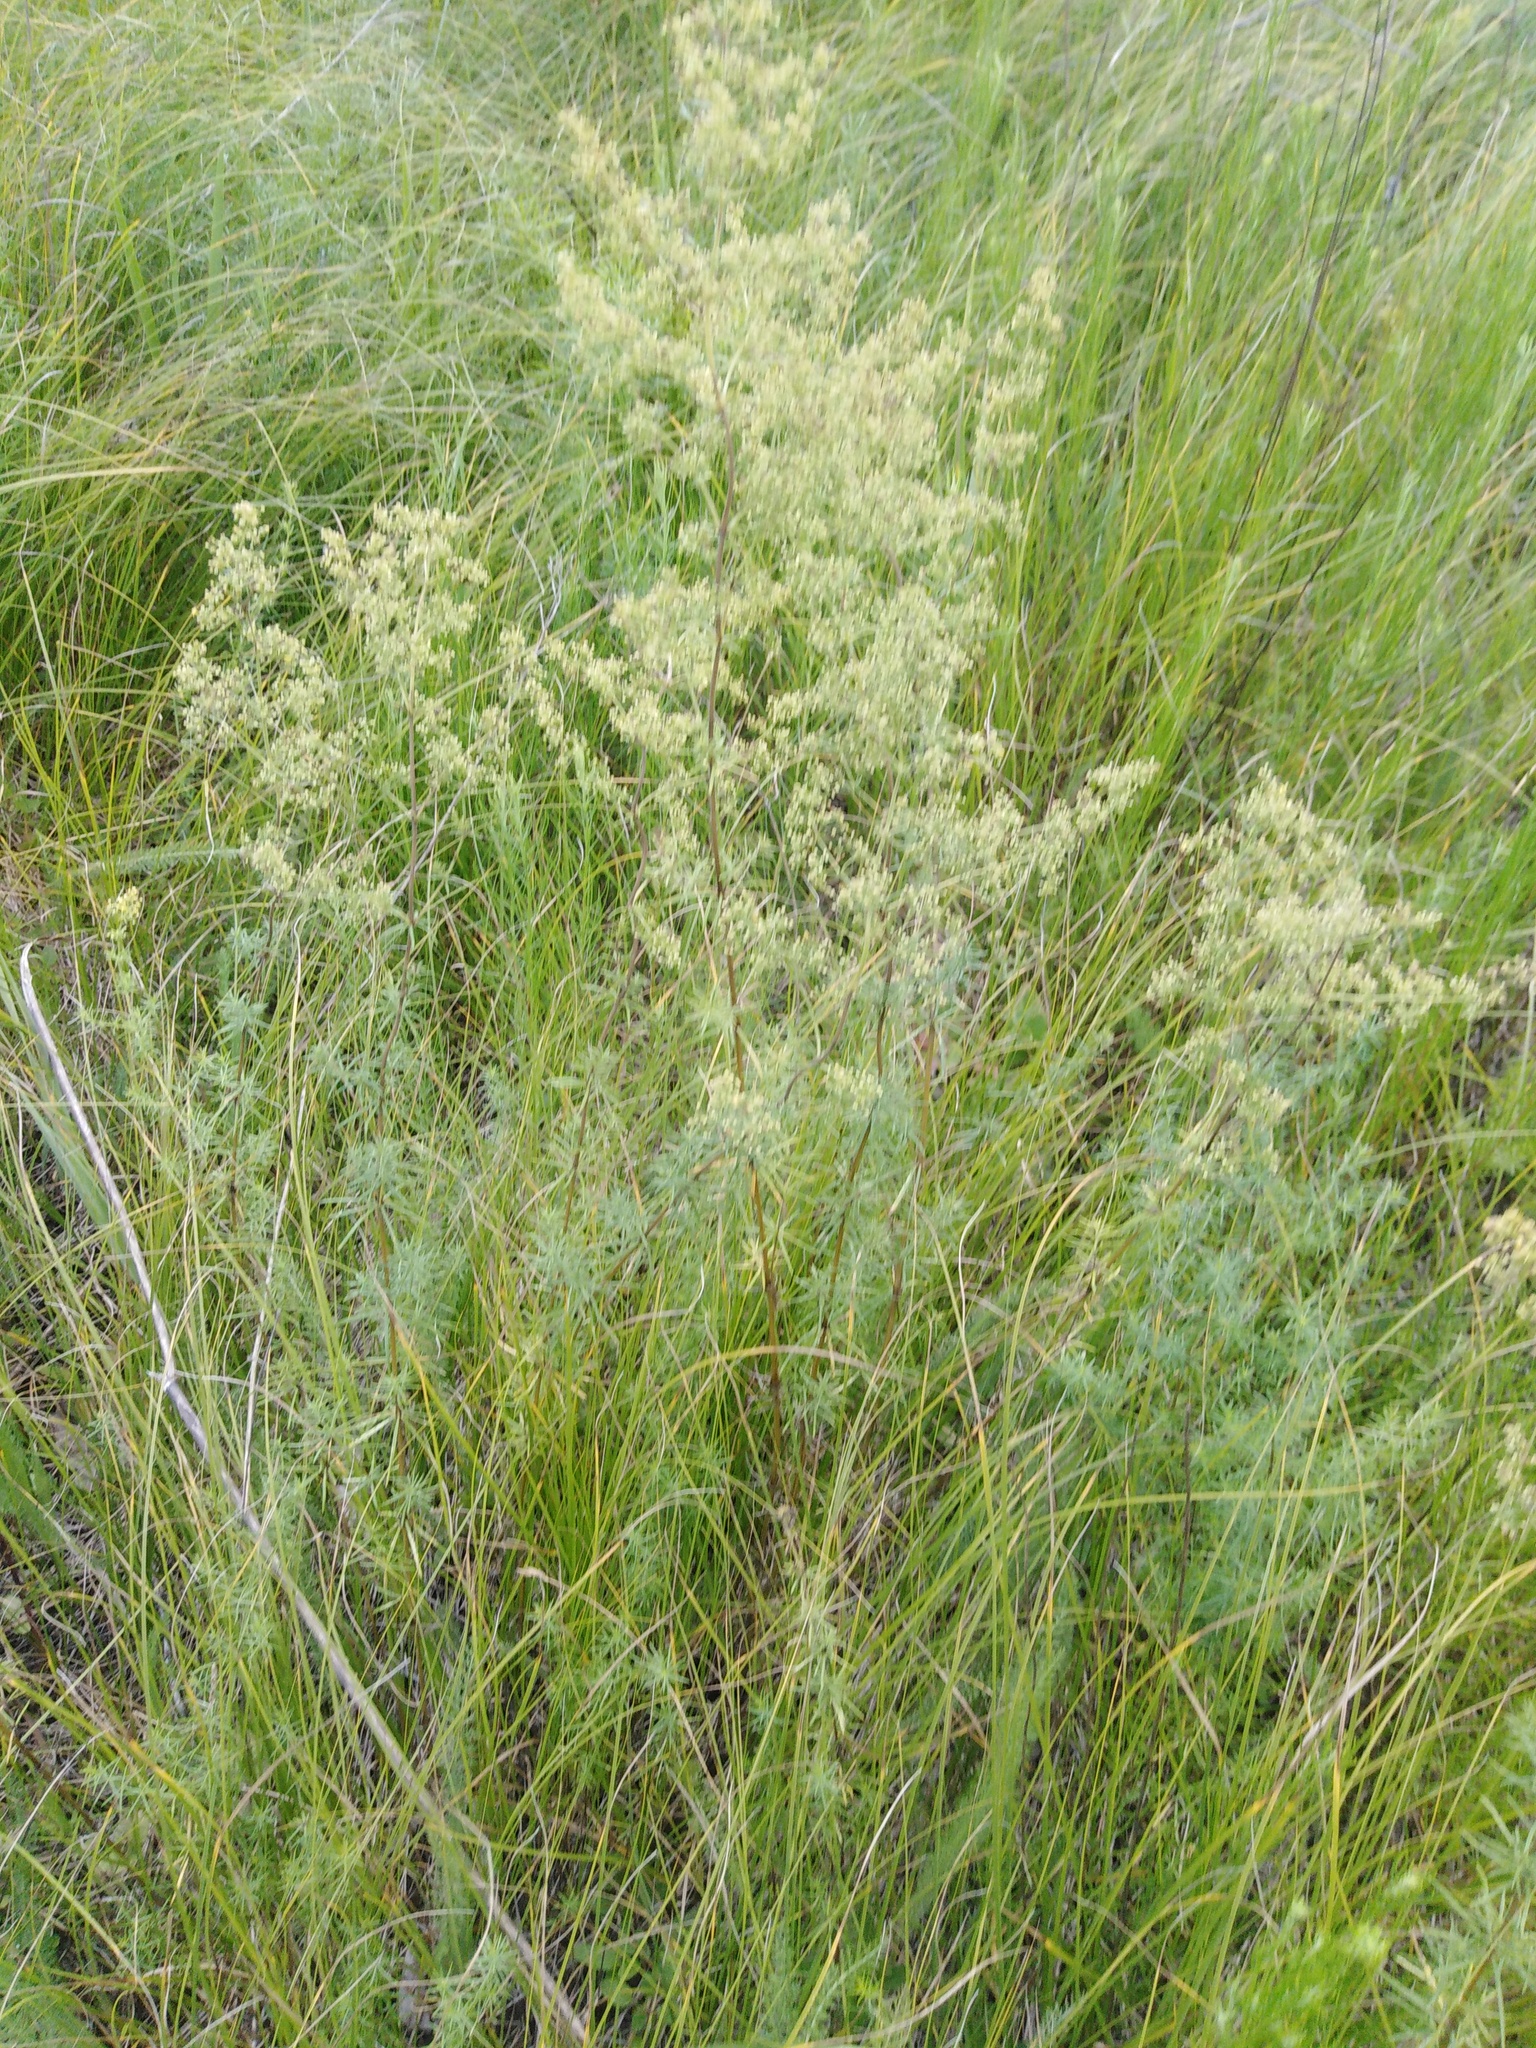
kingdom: Plantae
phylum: Tracheophyta
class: Magnoliopsida
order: Gentianales
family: Rubiaceae
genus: Galium
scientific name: Galium verum
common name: Lady's bedstraw
